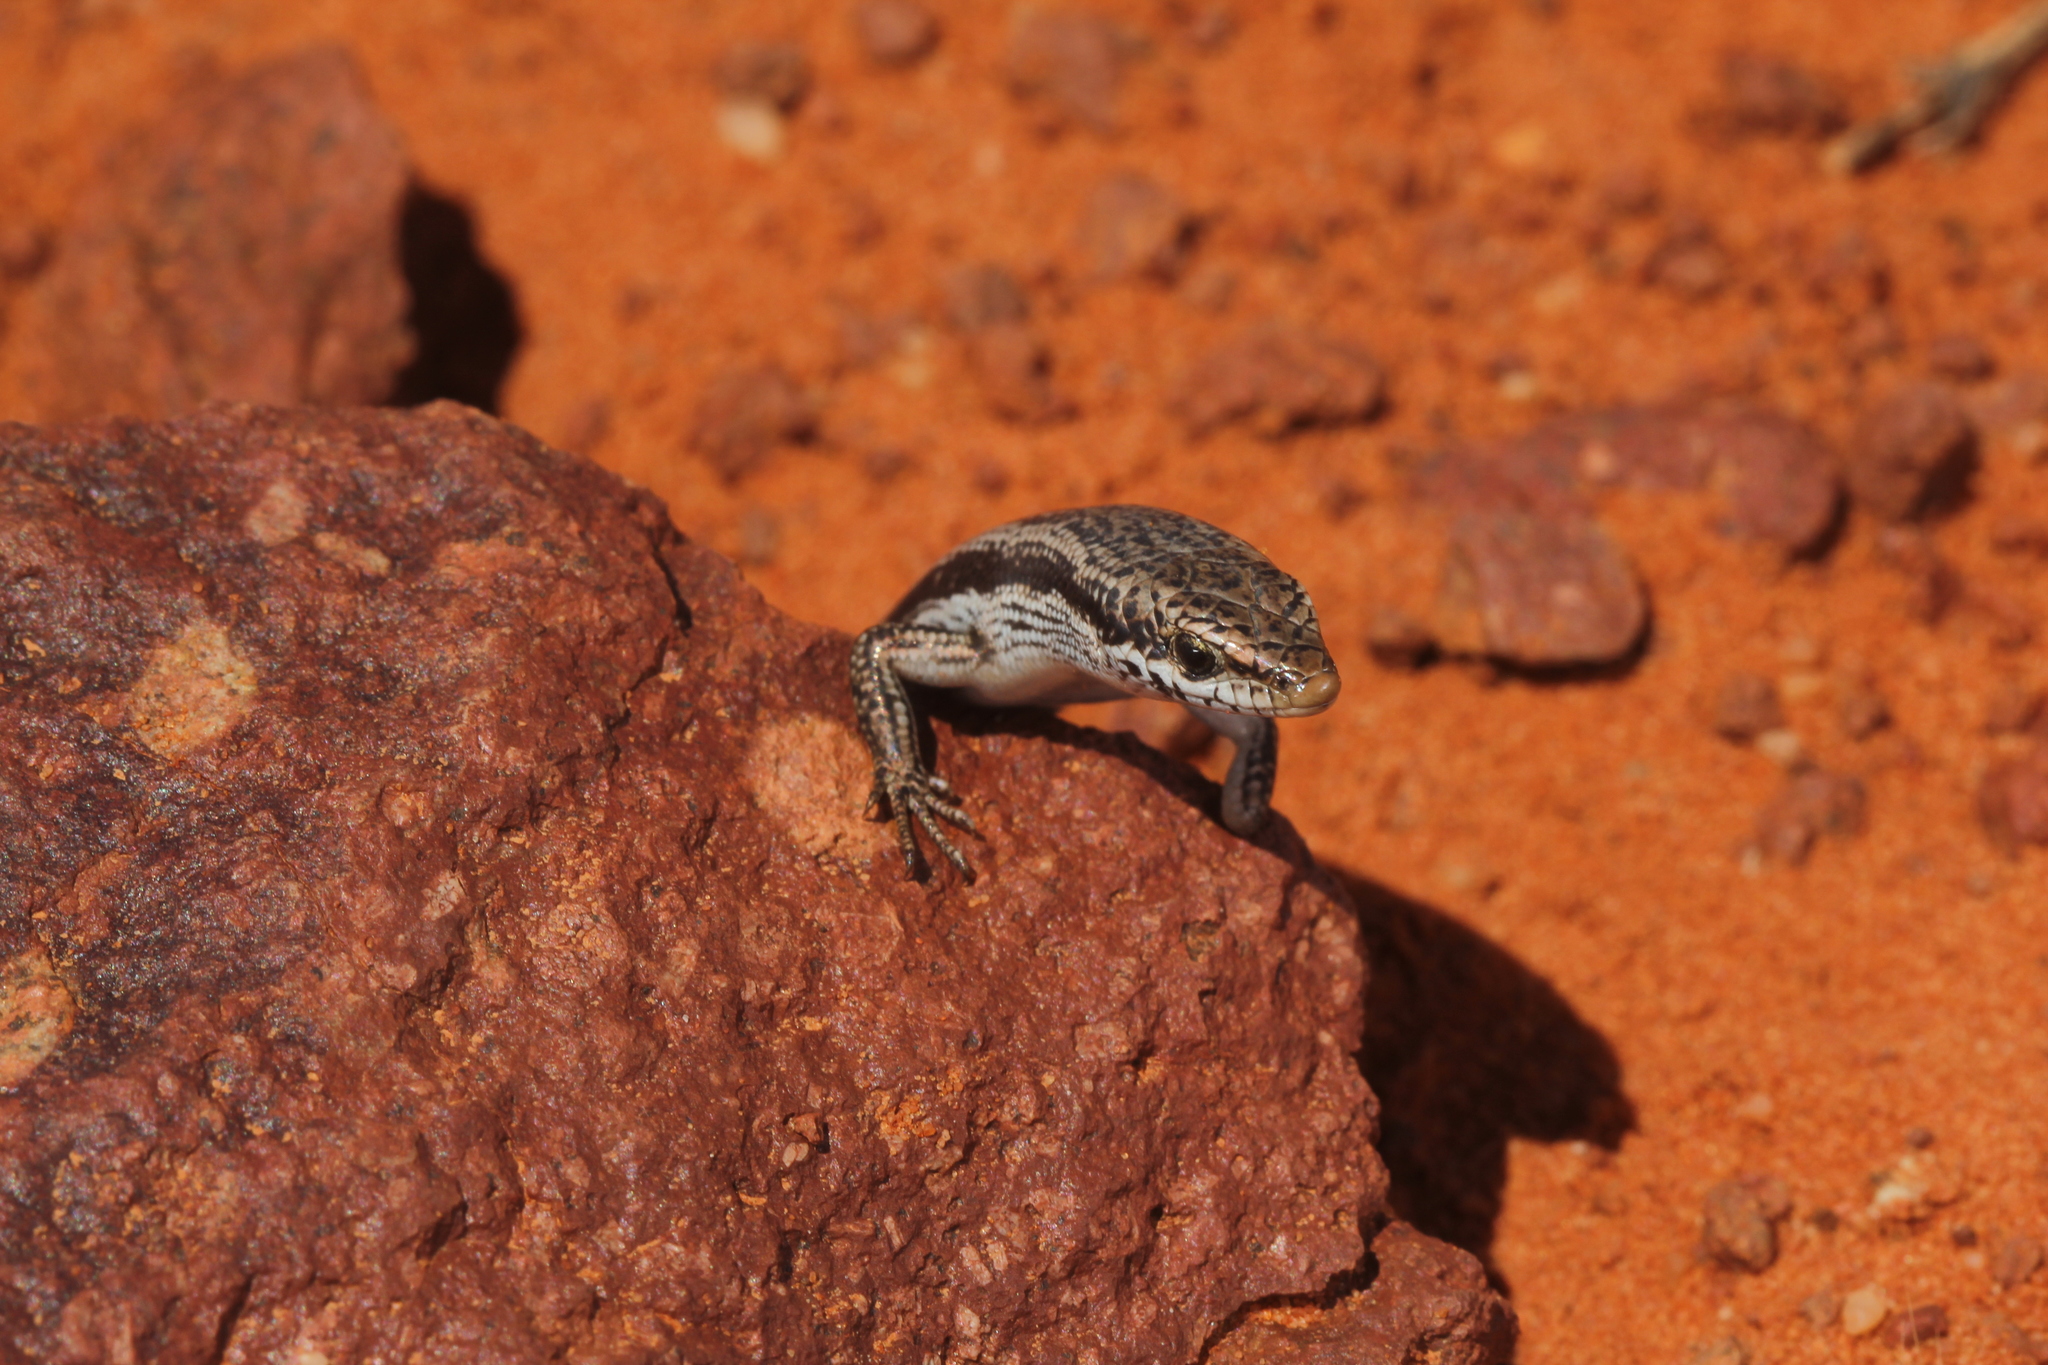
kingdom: Animalia
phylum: Chordata
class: Squamata
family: Scincidae
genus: Morethia
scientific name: Morethia boulengeri
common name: South-eastern morethia skink
